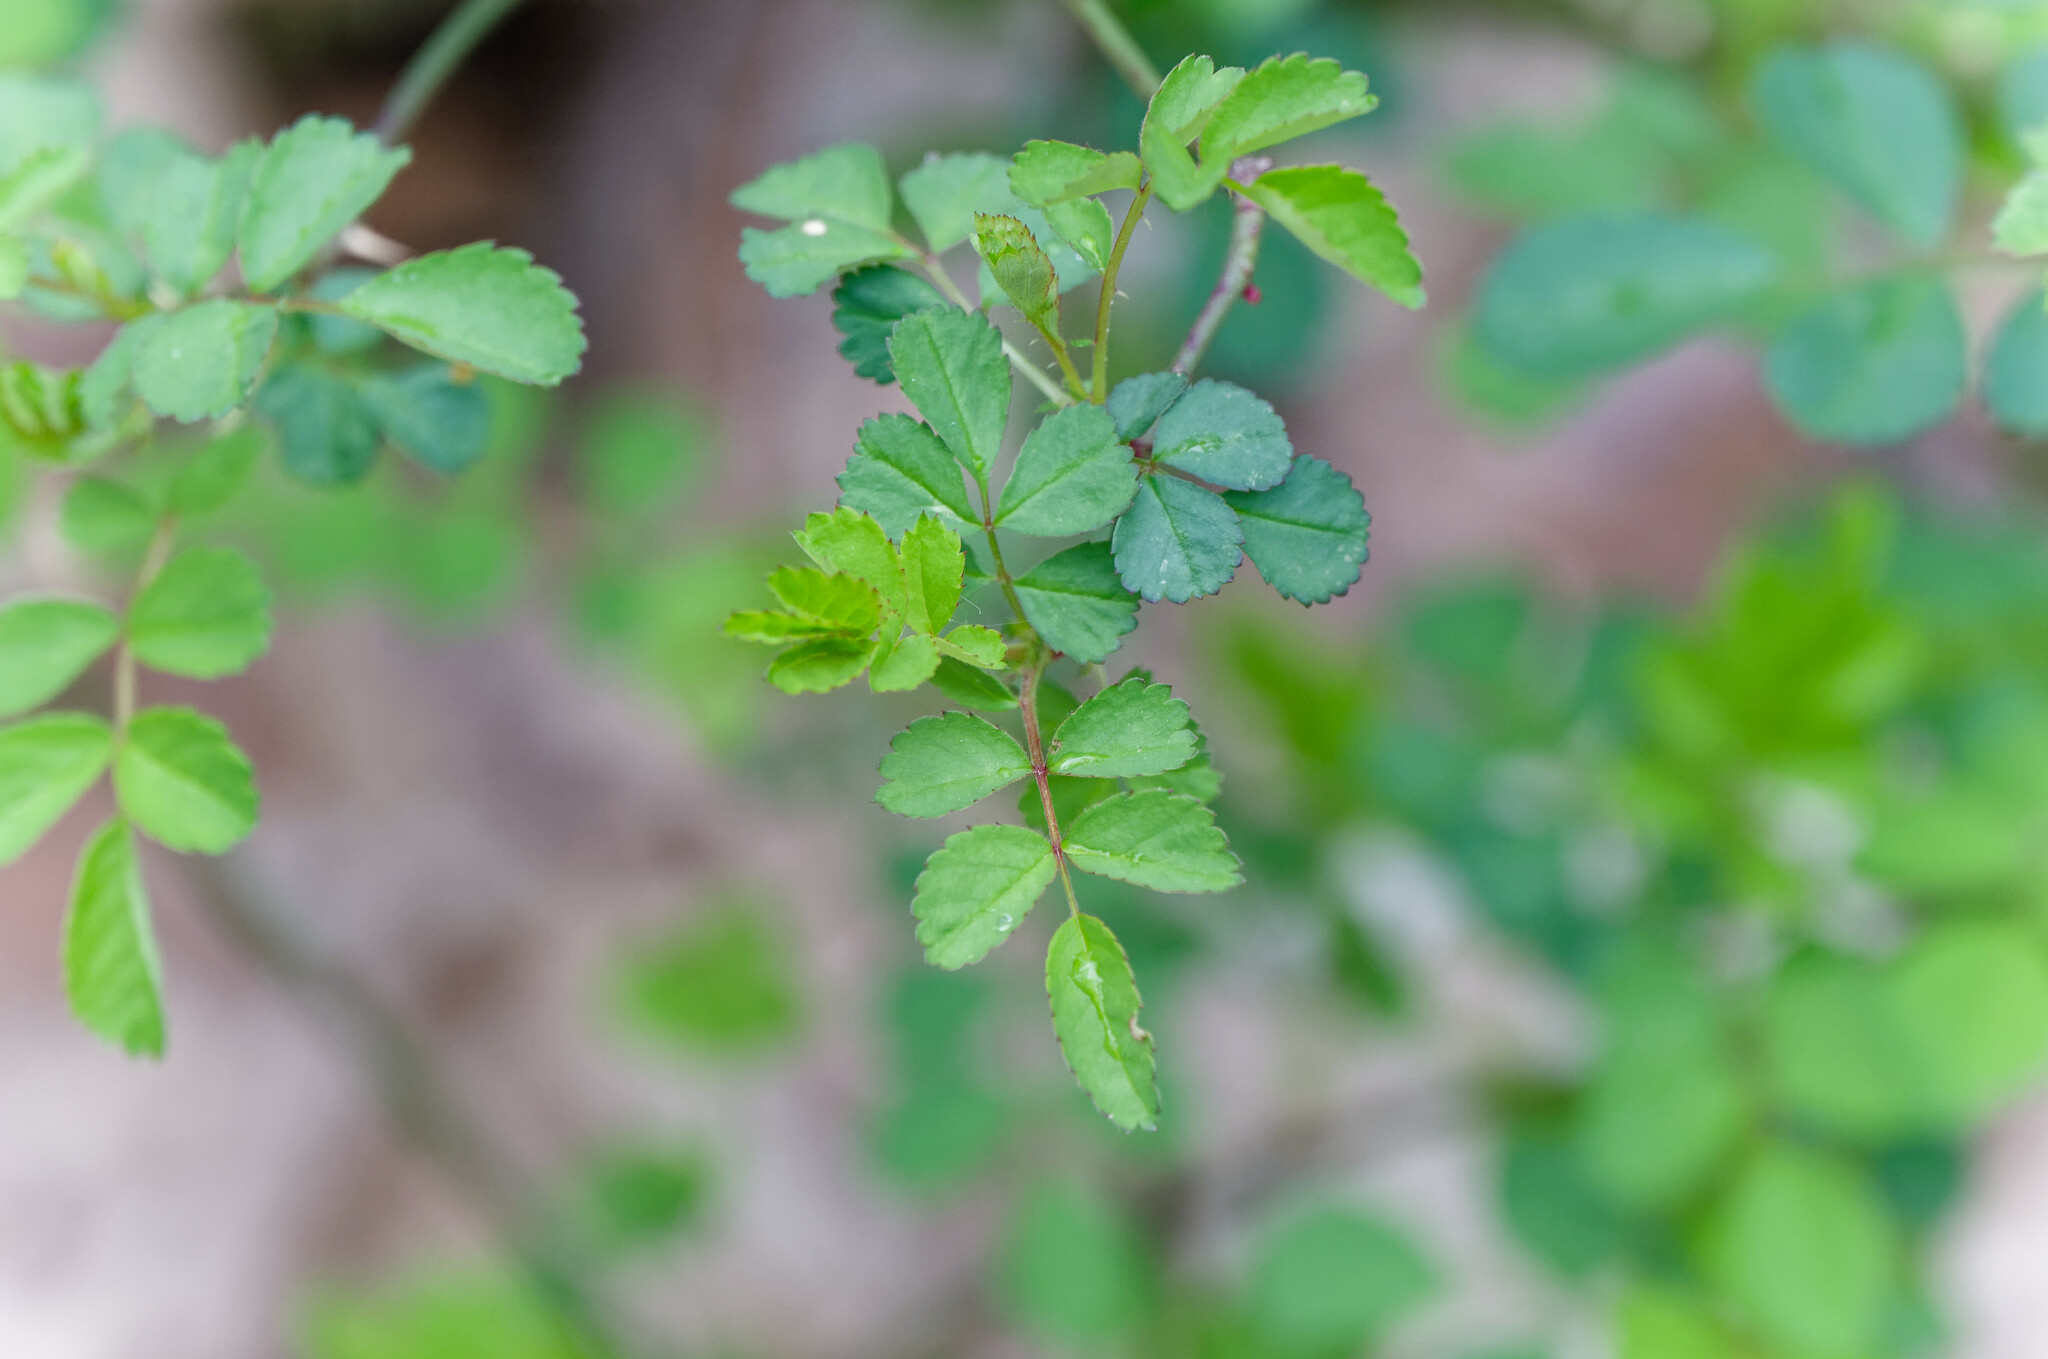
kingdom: Plantae
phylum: Tracheophyta
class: Magnoliopsida
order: Rosales
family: Rosaceae
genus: Rosa
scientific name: Rosa multiflora
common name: Multiflora rose
